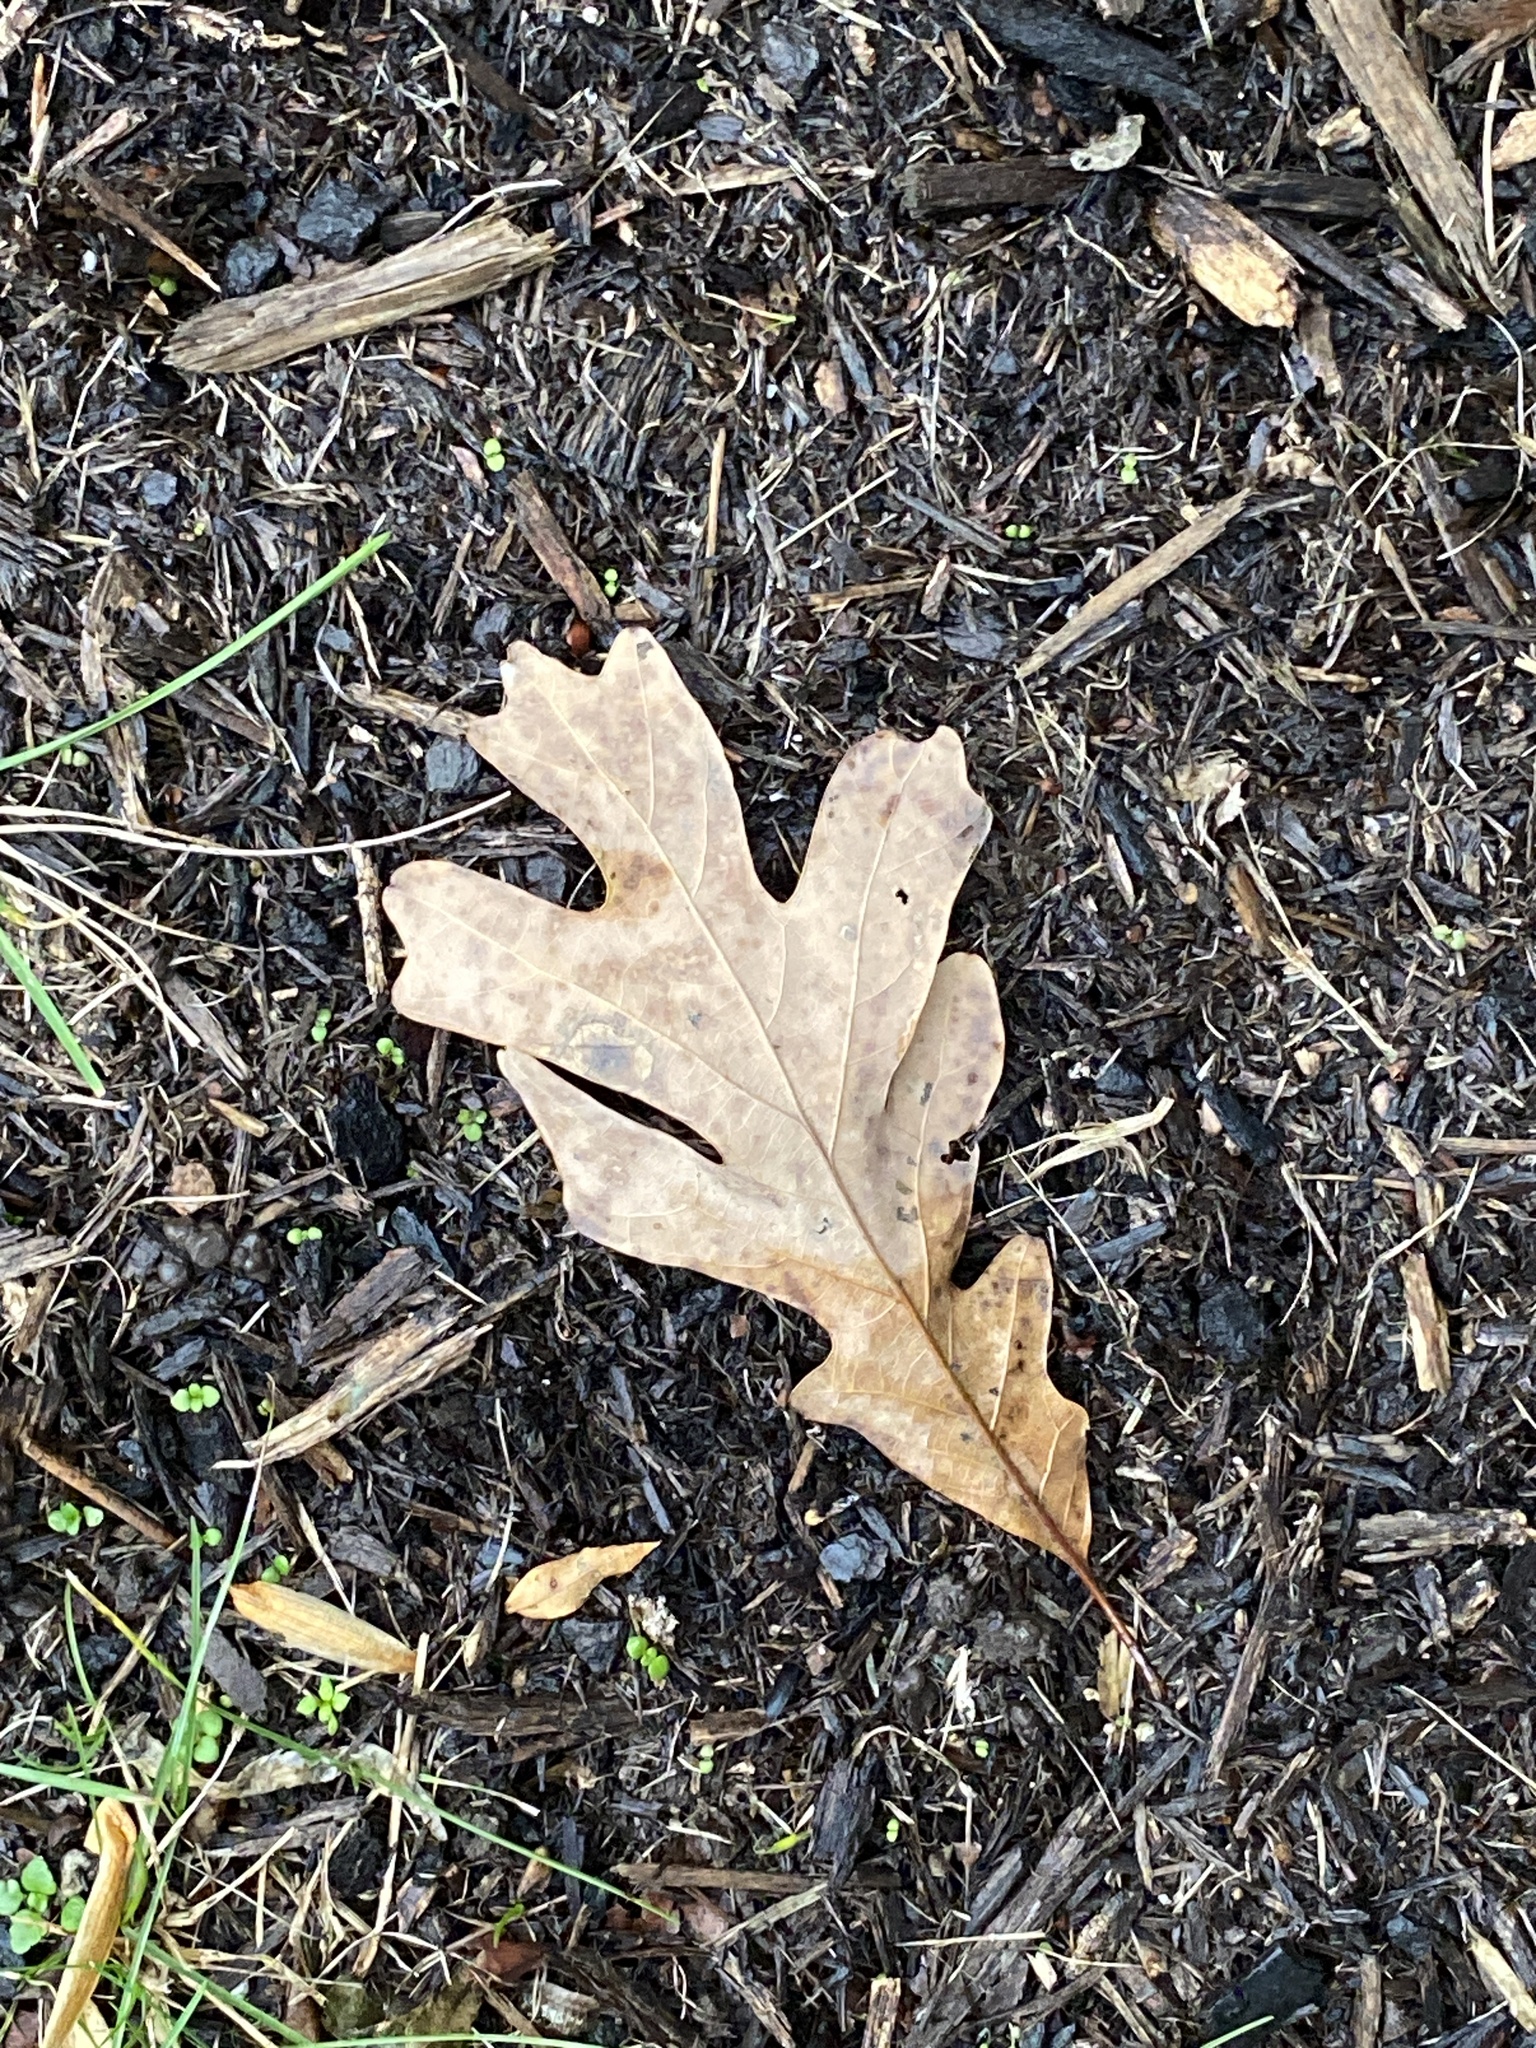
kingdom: Plantae
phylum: Tracheophyta
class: Magnoliopsida
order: Fagales
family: Fagaceae
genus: Quercus
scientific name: Quercus alba
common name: White oak
